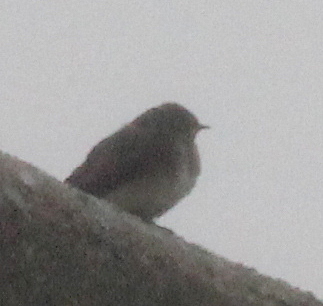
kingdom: Animalia
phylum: Chordata
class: Aves
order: Passeriformes
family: Hirundinidae
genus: Stelgidopteryx
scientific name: Stelgidopteryx serripennis
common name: Northern rough-winged swallow
